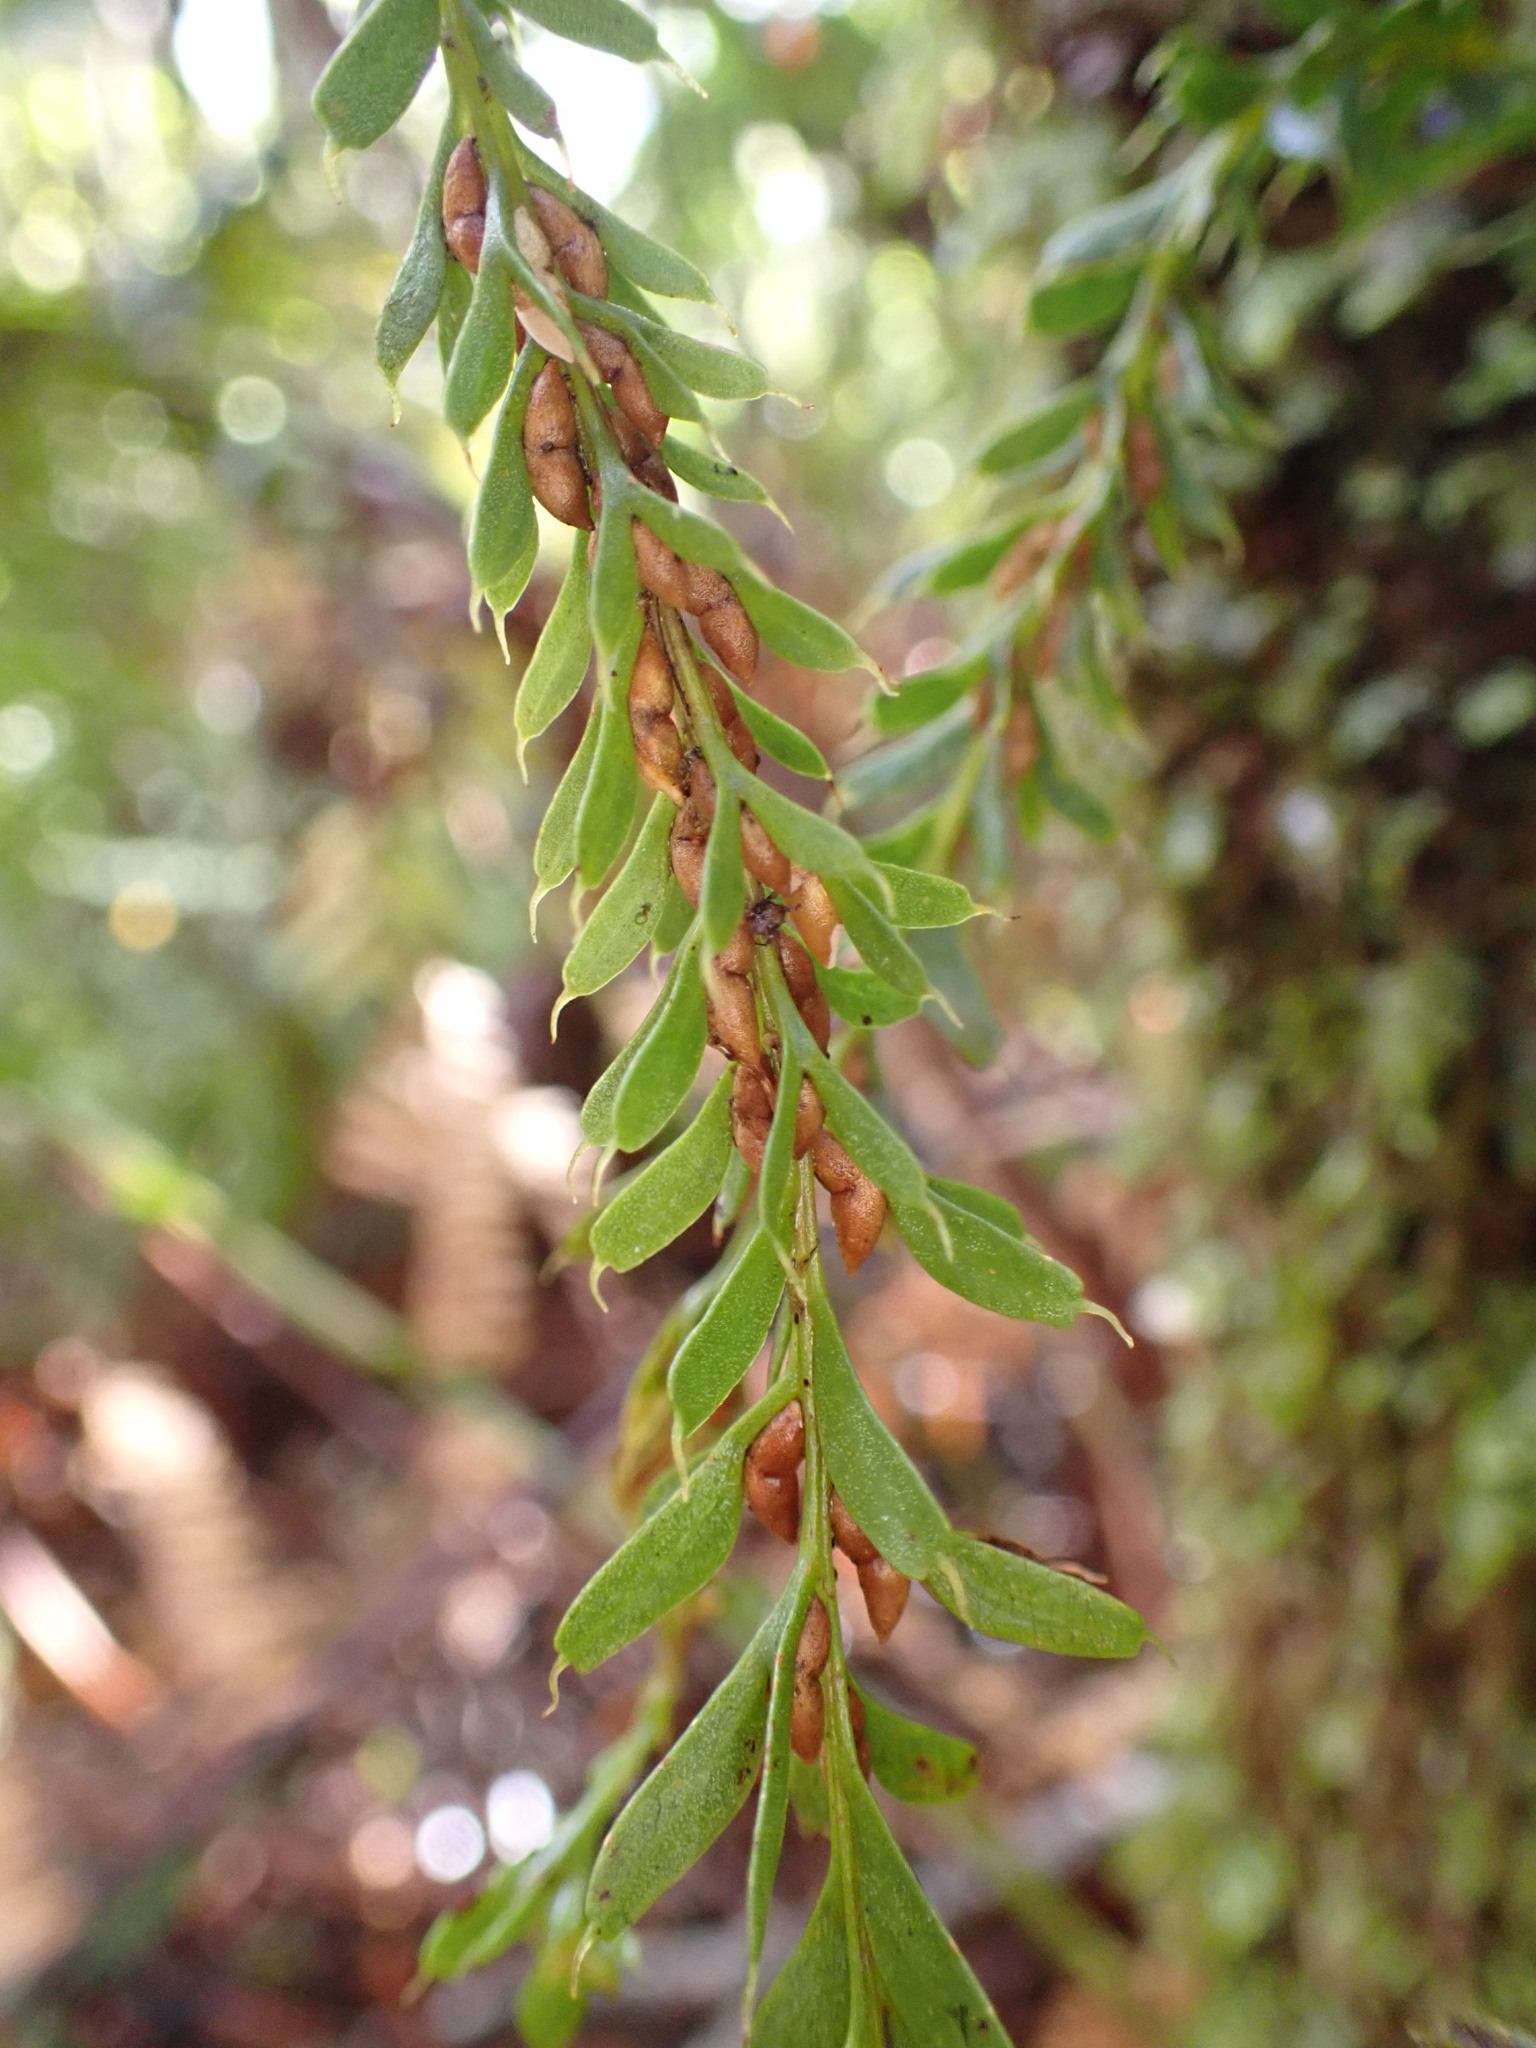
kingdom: Plantae
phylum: Tracheophyta
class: Polypodiopsida
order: Psilotales
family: Psilotaceae
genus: Tmesipteris
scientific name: Tmesipteris tannensis
